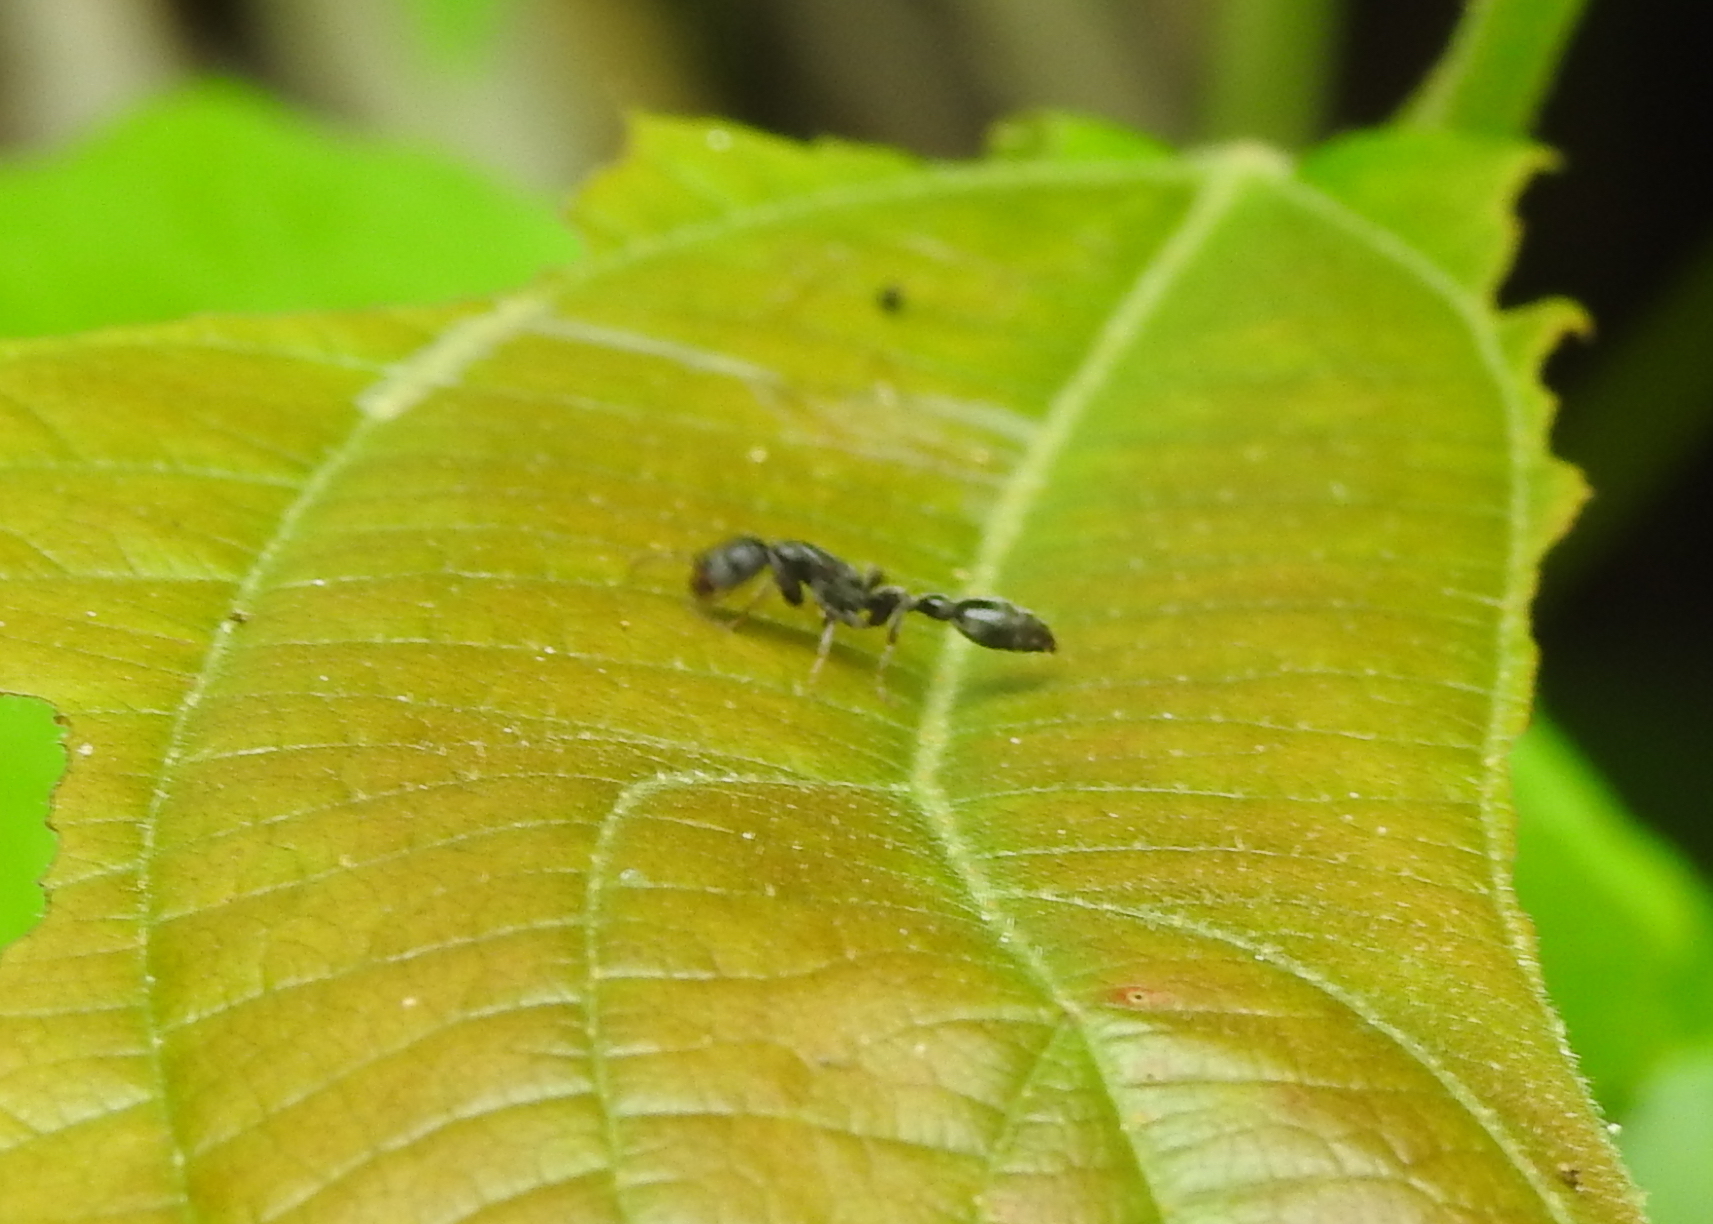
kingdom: Animalia
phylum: Arthropoda
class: Insecta
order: Hymenoptera
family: Formicidae
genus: Tetraponera
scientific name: Tetraponera difficilis
